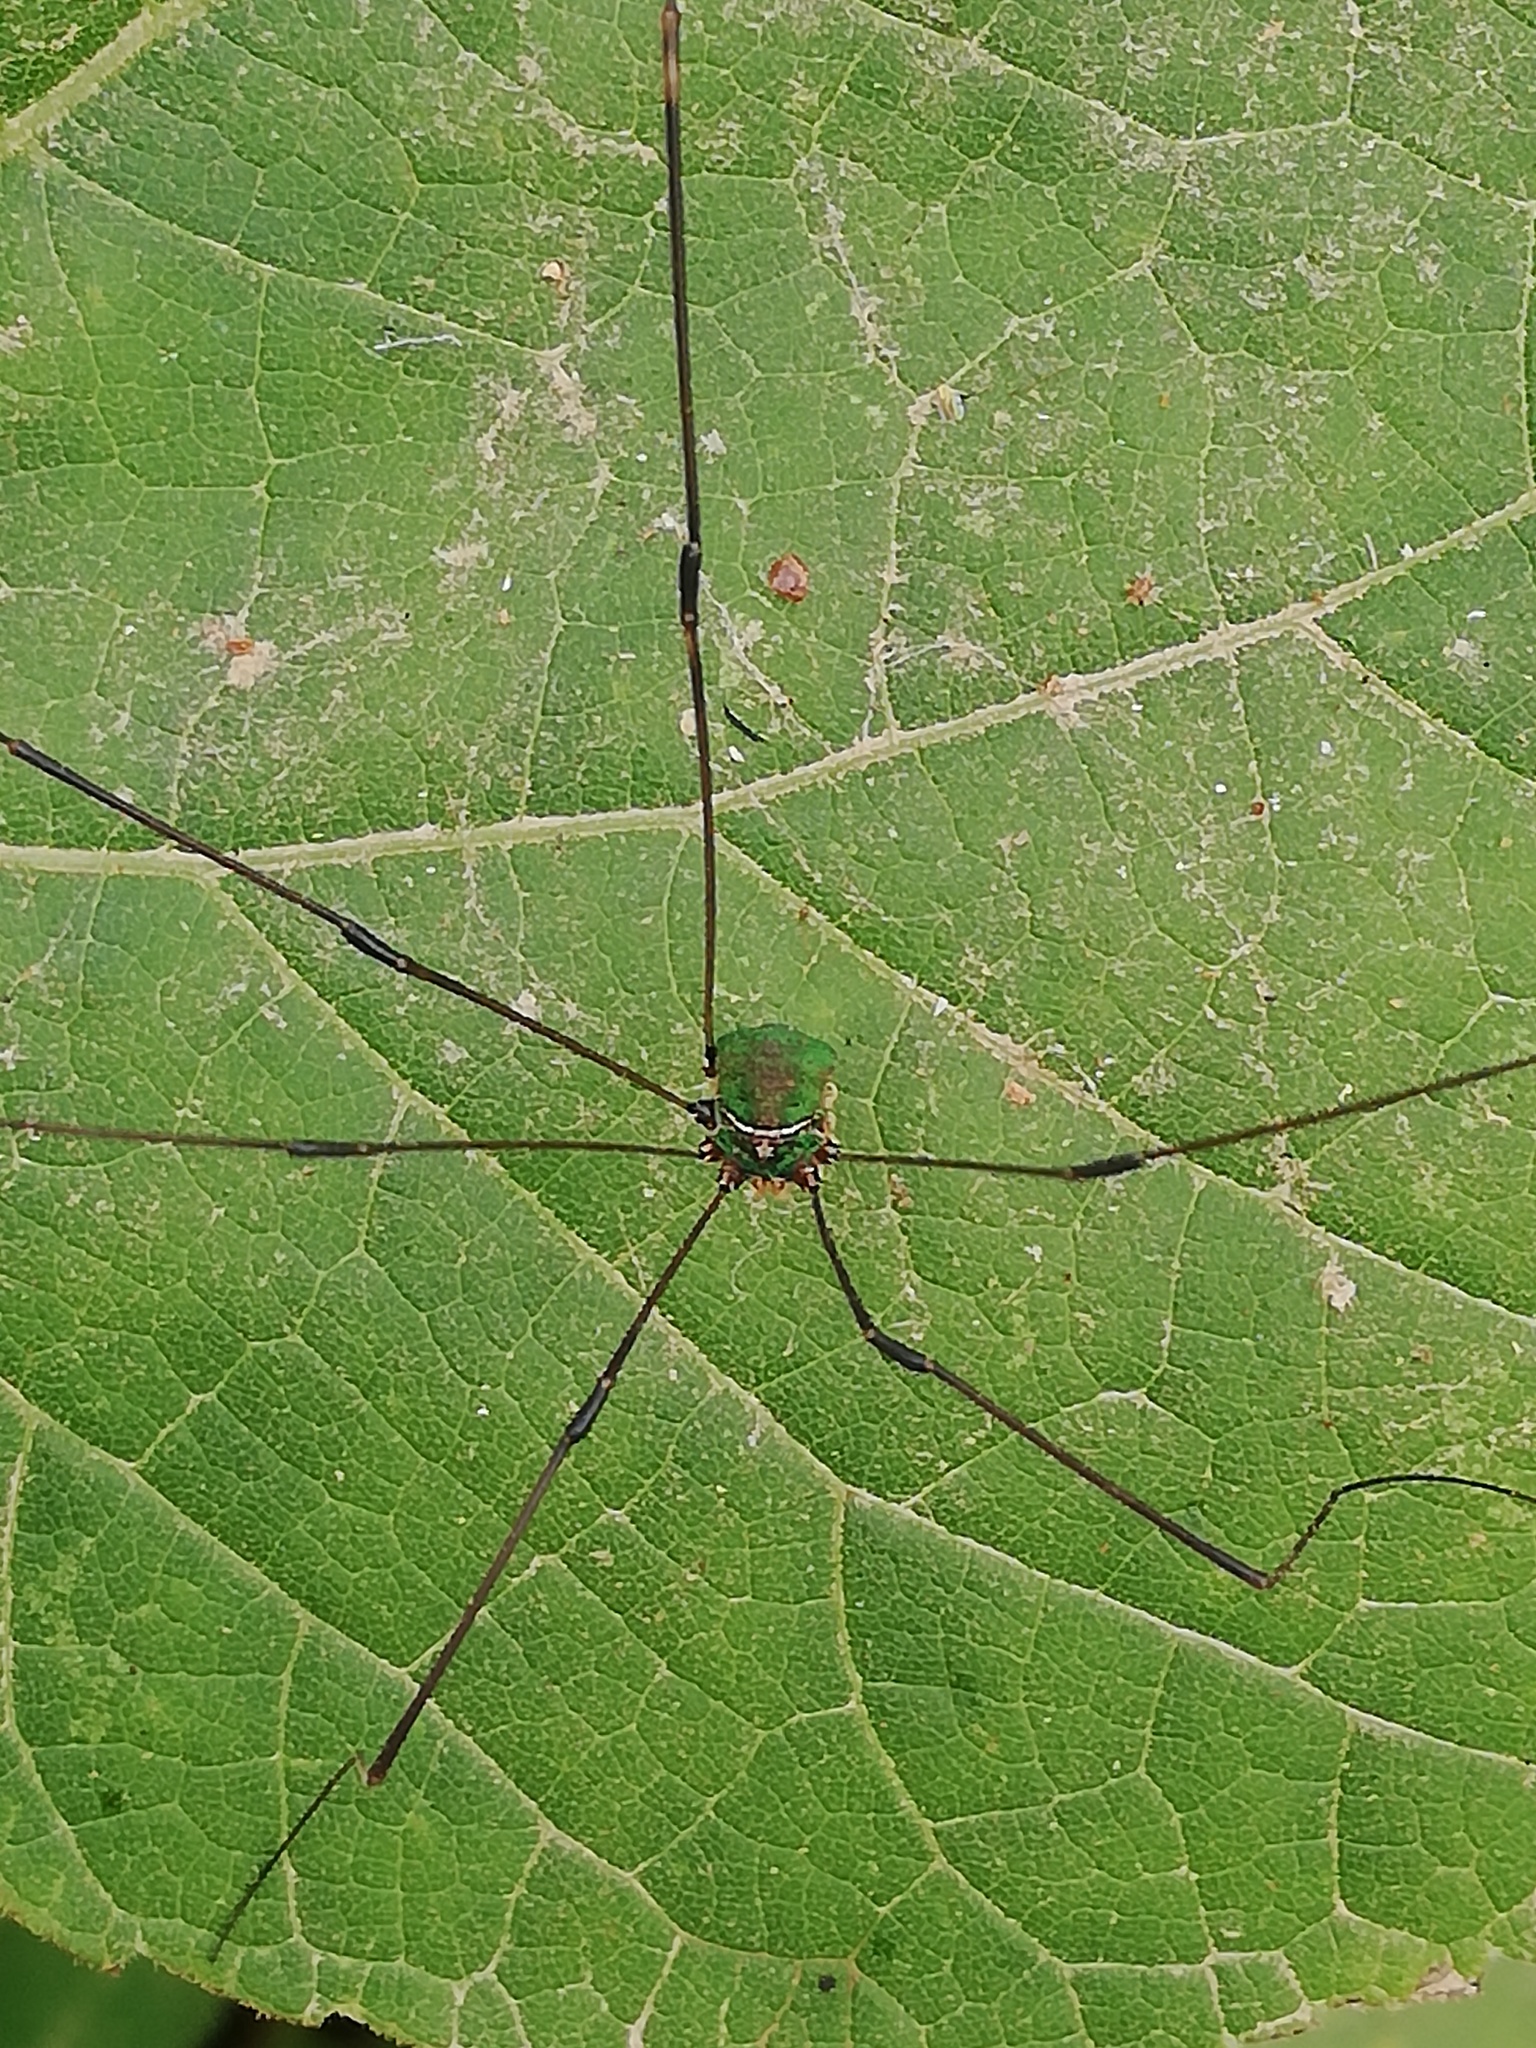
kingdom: Animalia
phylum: Arthropoda
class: Arachnida
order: Opiliones
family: Sclerosomatidae
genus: Leiobunum
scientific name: Leiobunum viridorsum
